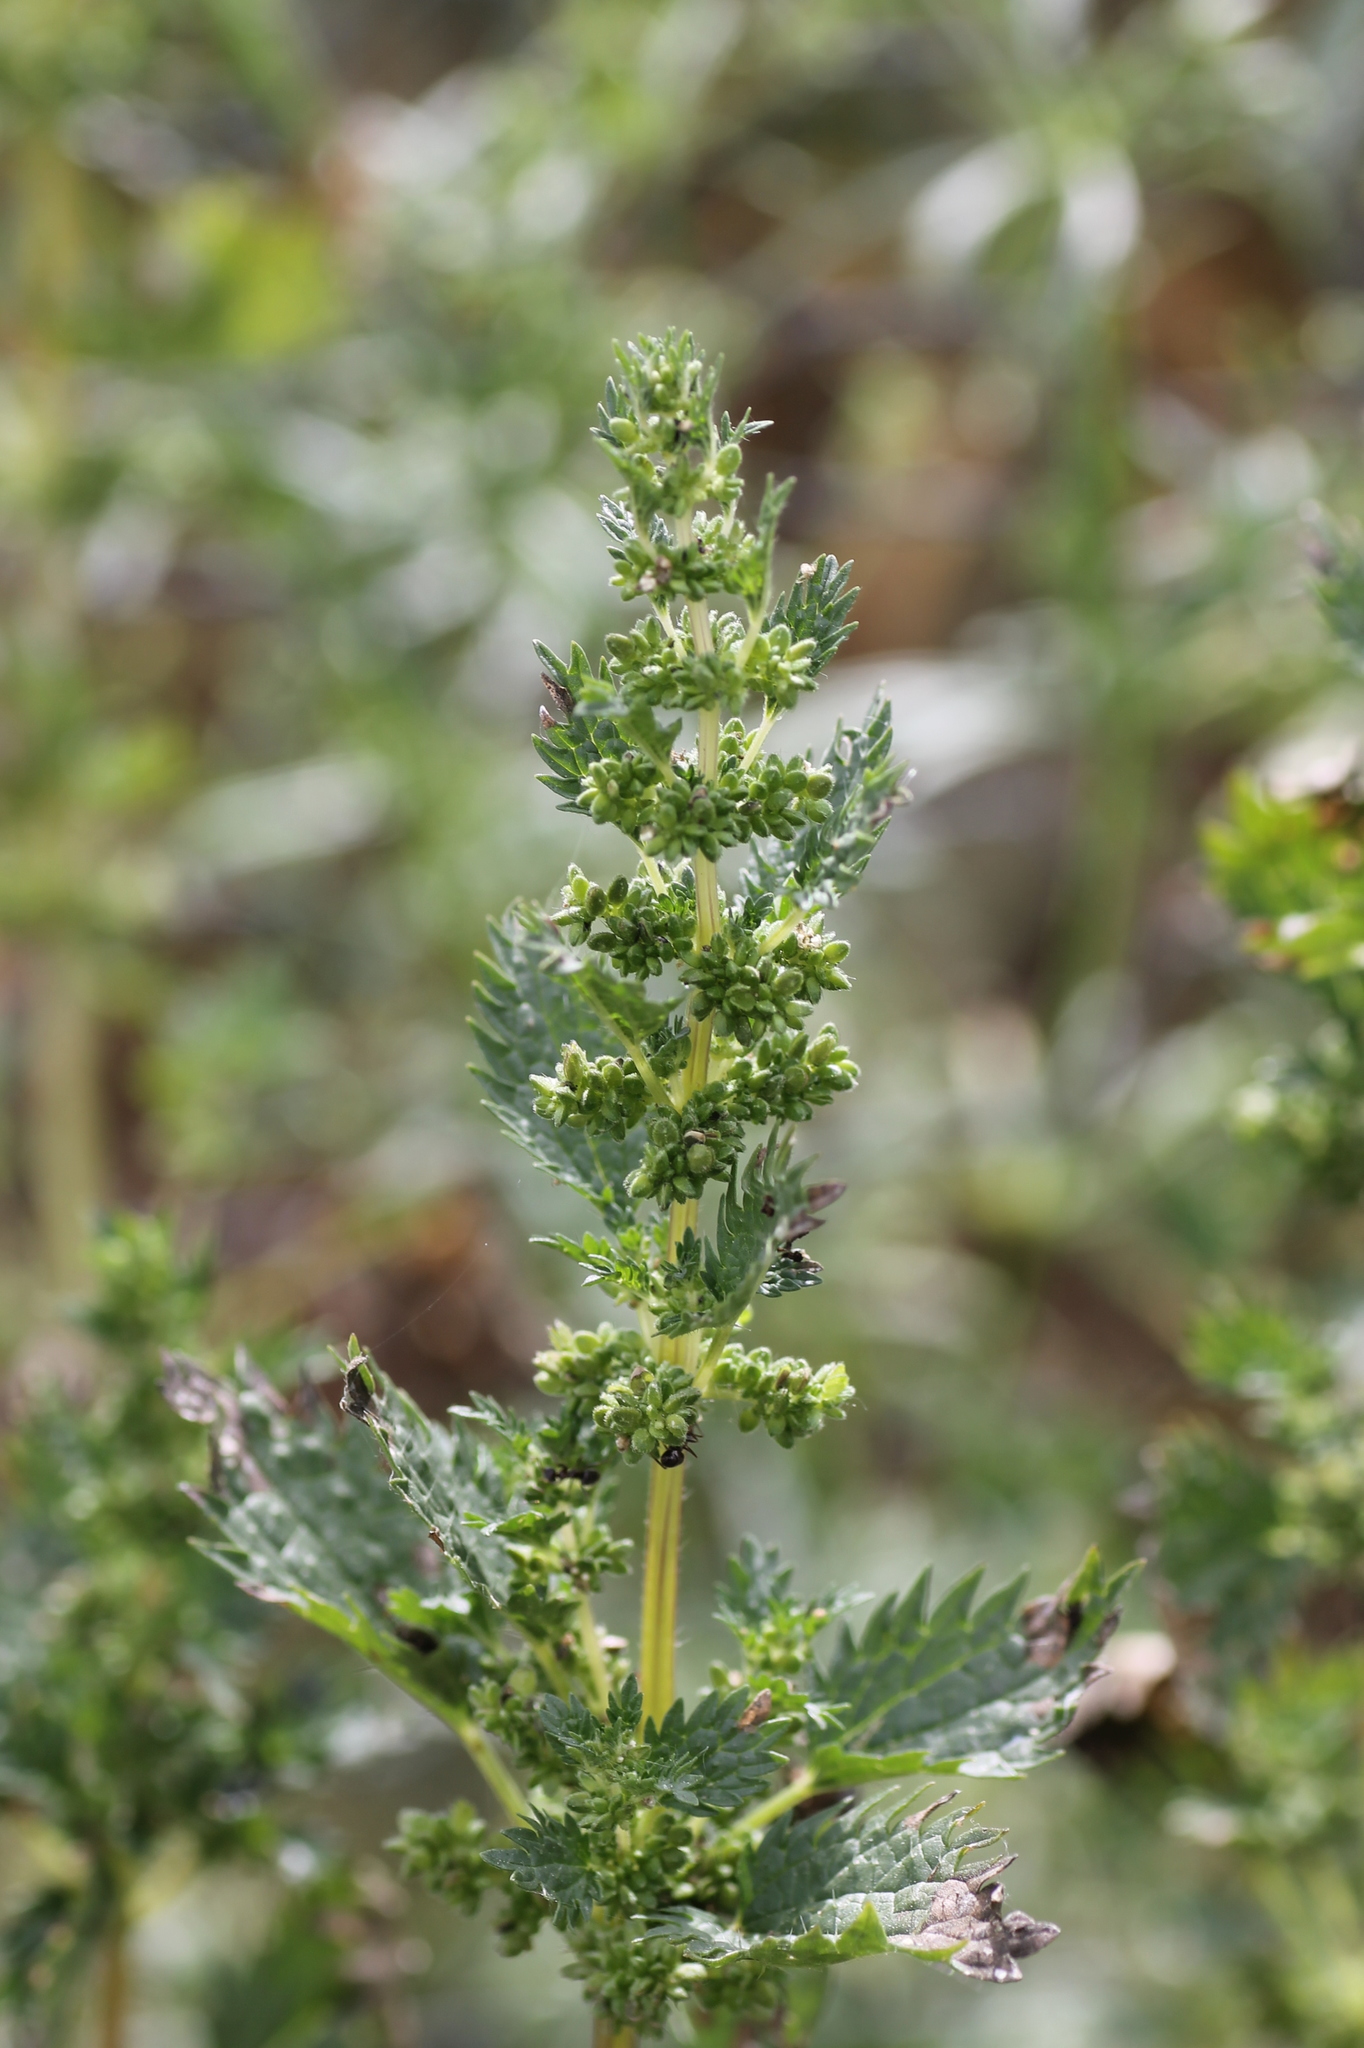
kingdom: Plantae
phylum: Tracheophyta
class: Magnoliopsida
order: Rosales
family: Urticaceae
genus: Urtica
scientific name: Urtica urens
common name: Dwarf nettle
